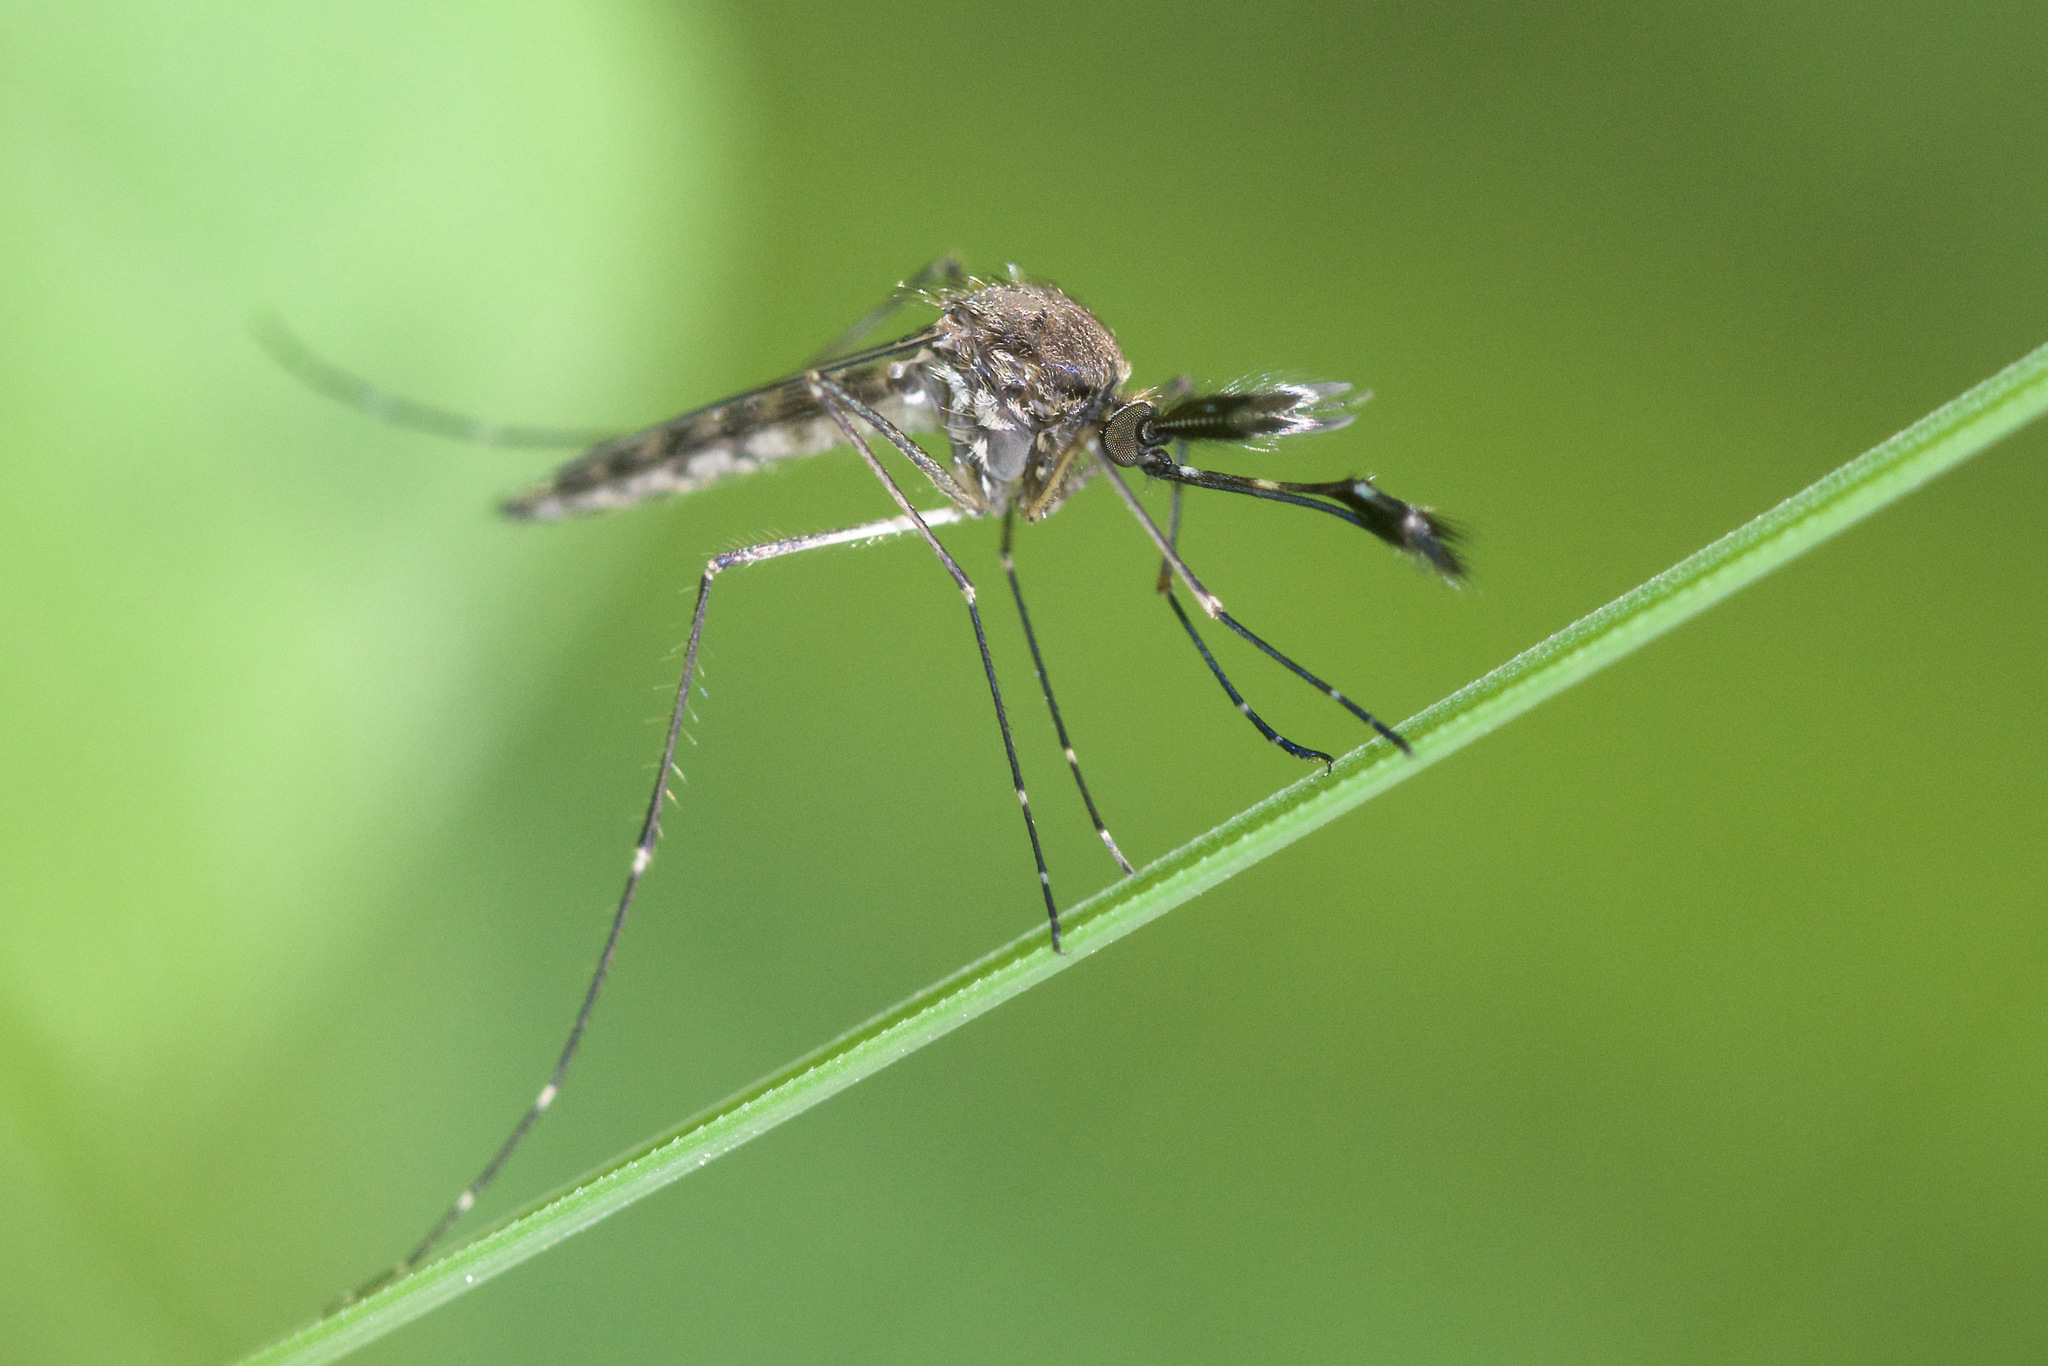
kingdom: Animalia
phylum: Arthropoda
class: Insecta
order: Diptera
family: Culicidae
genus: Aedes
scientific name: Aedes canadensis
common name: Woodland pool mosquito
